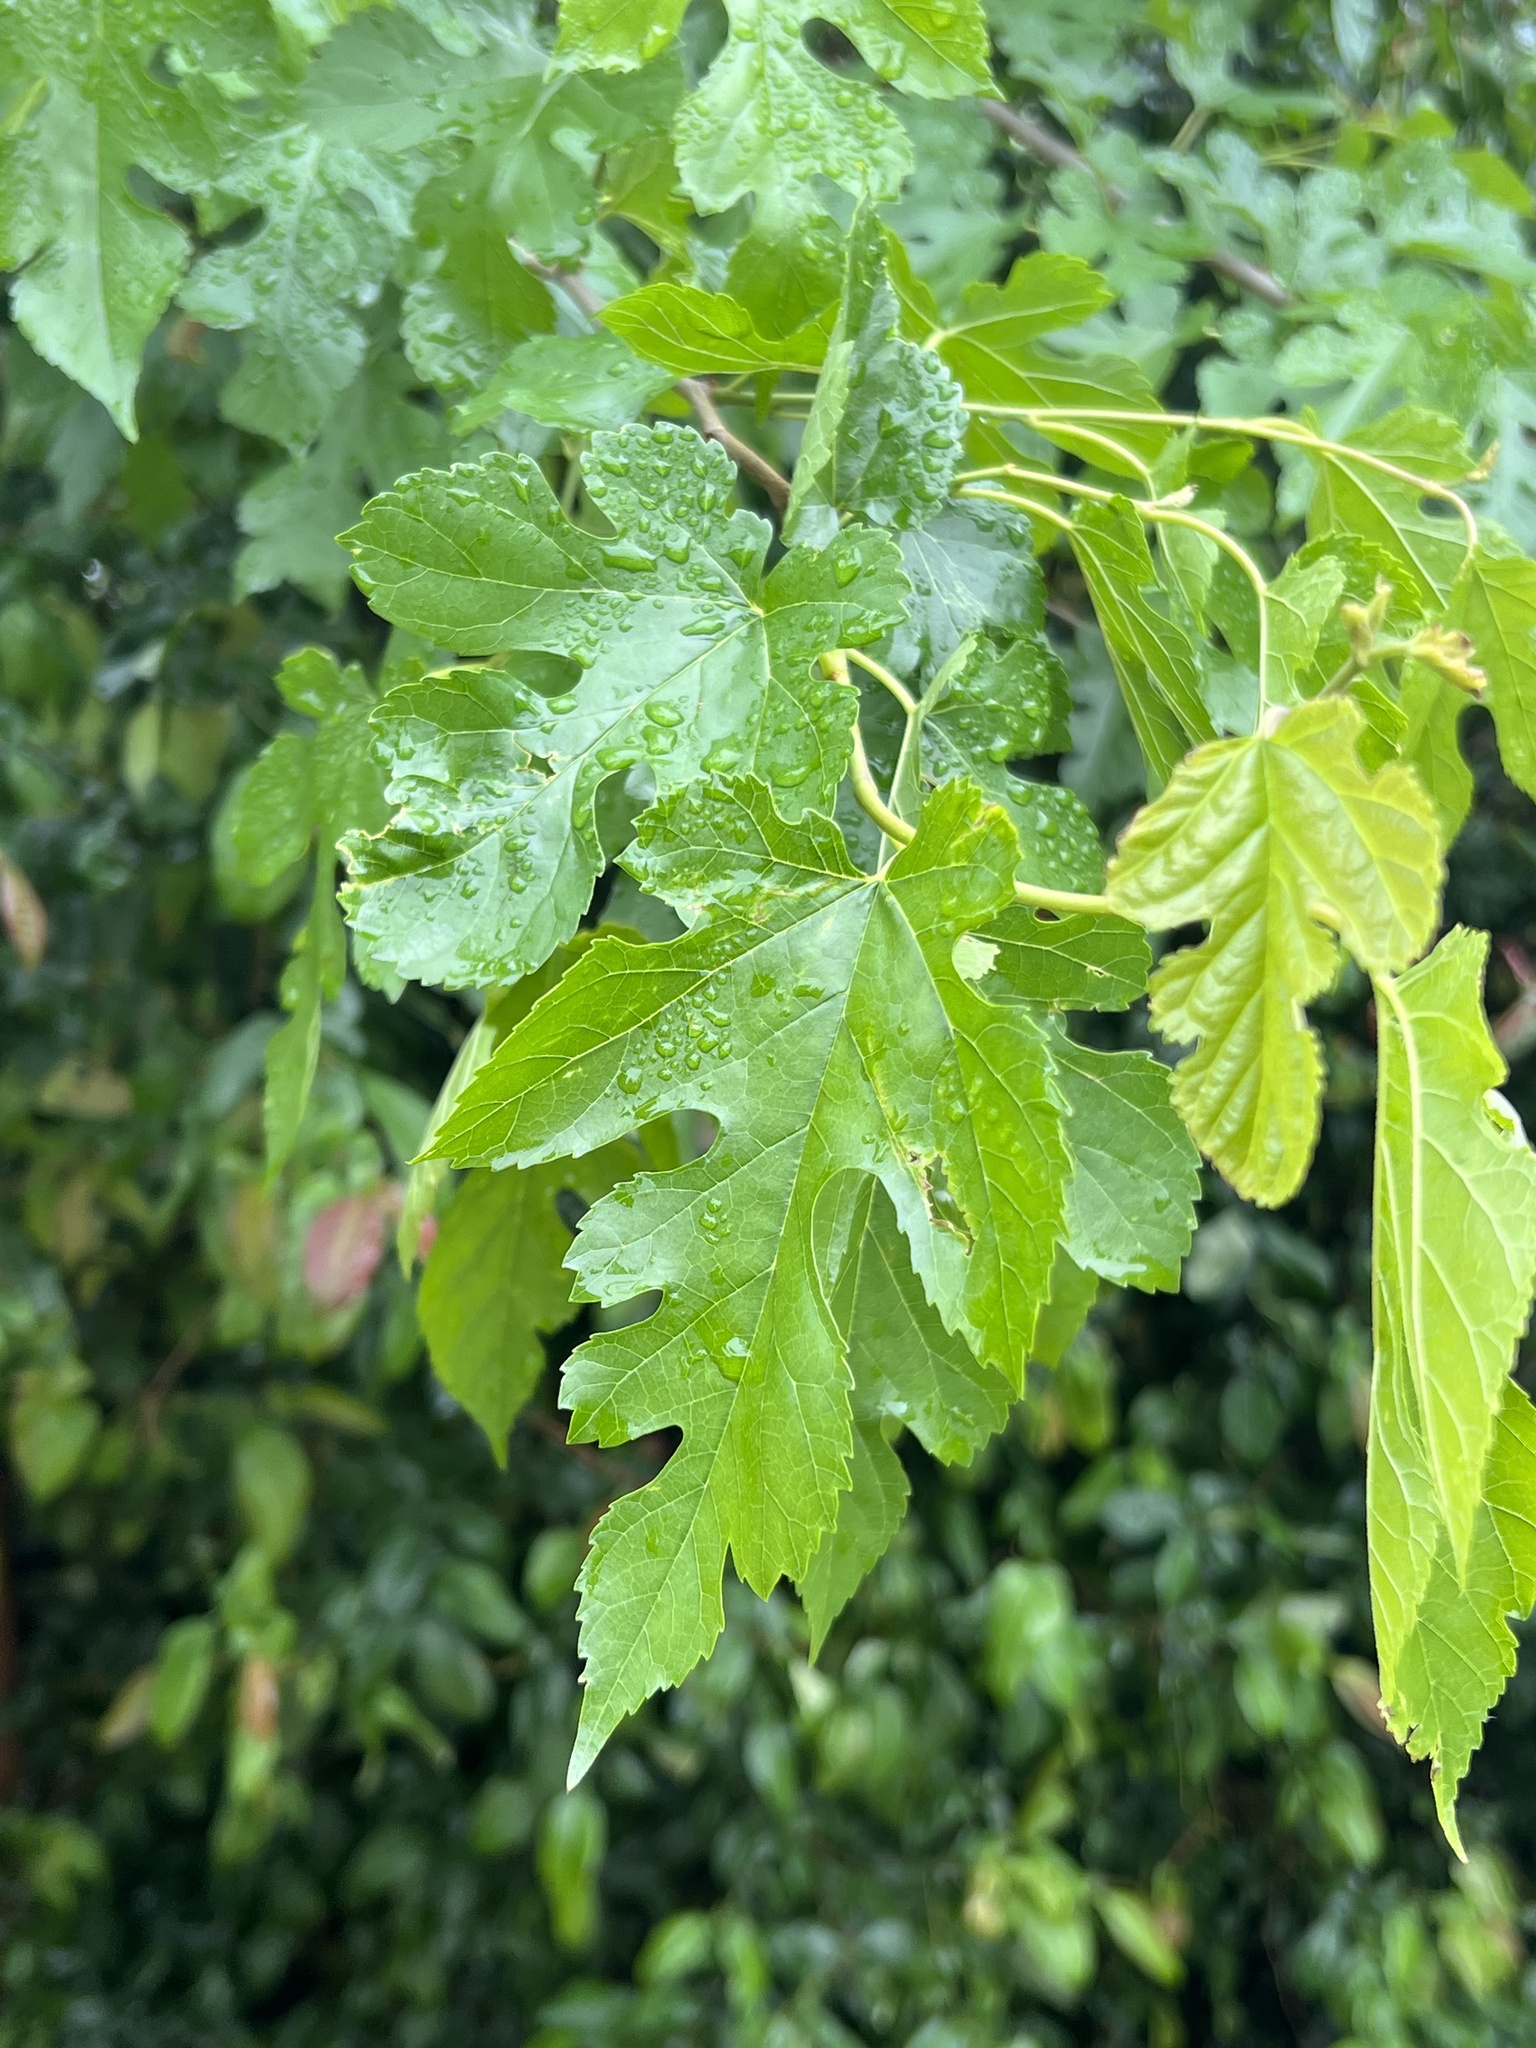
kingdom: Plantae
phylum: Tracheophyta
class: Magnoliopsida
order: Rosales
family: Moraceae
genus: Morus
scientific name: Morus alba
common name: White mulberry
